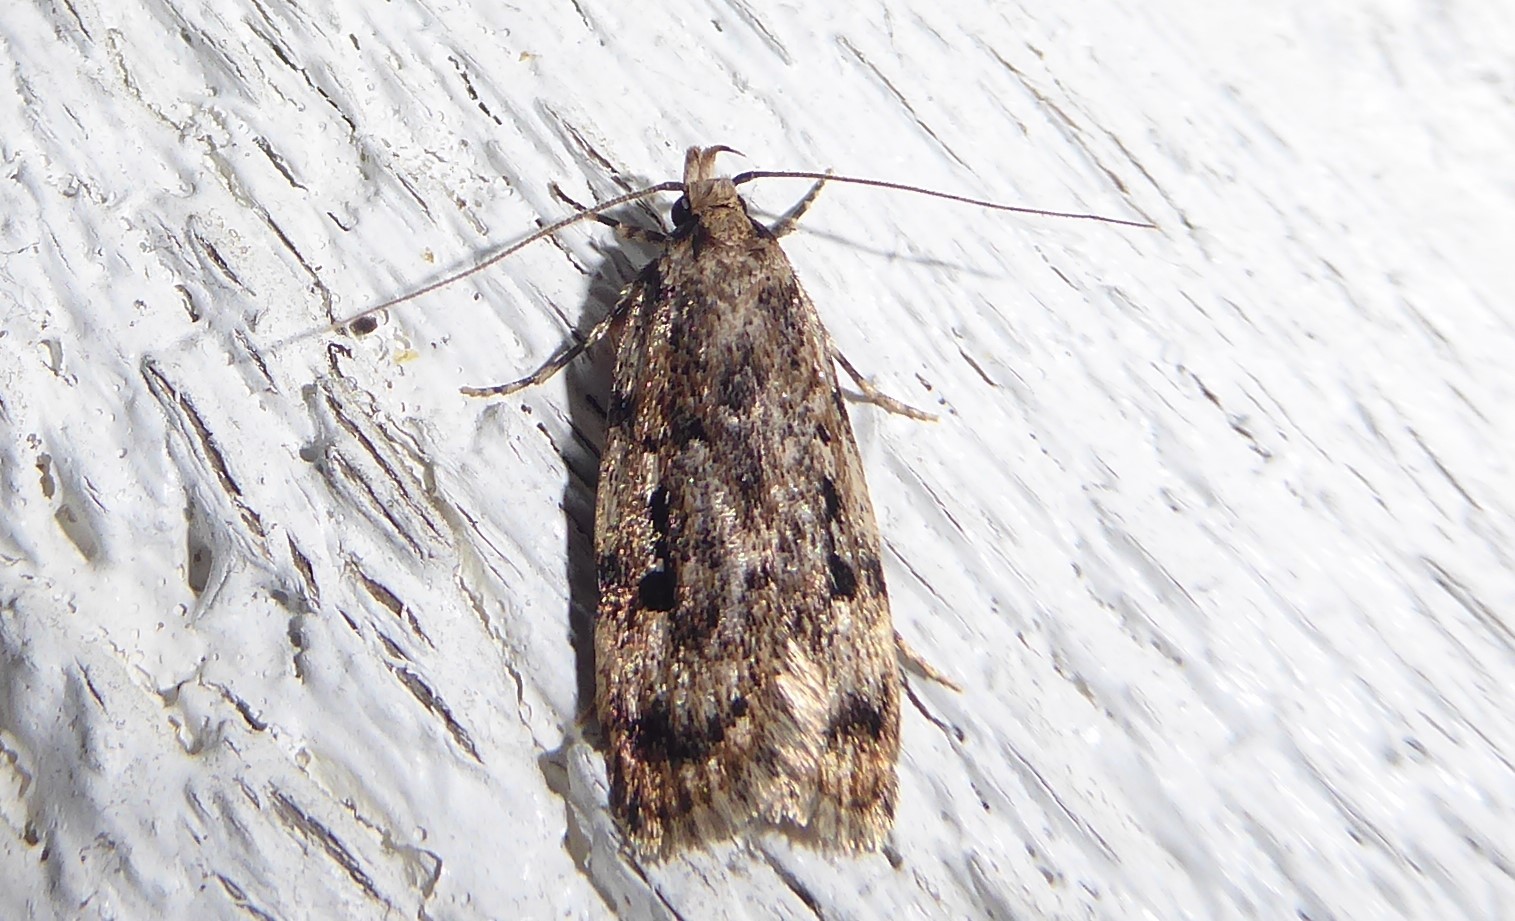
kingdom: Animalia
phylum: Arthropoda
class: Insecta
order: Lepidoptera
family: Oecophoridae
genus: Barea
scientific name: Barea exarcha
